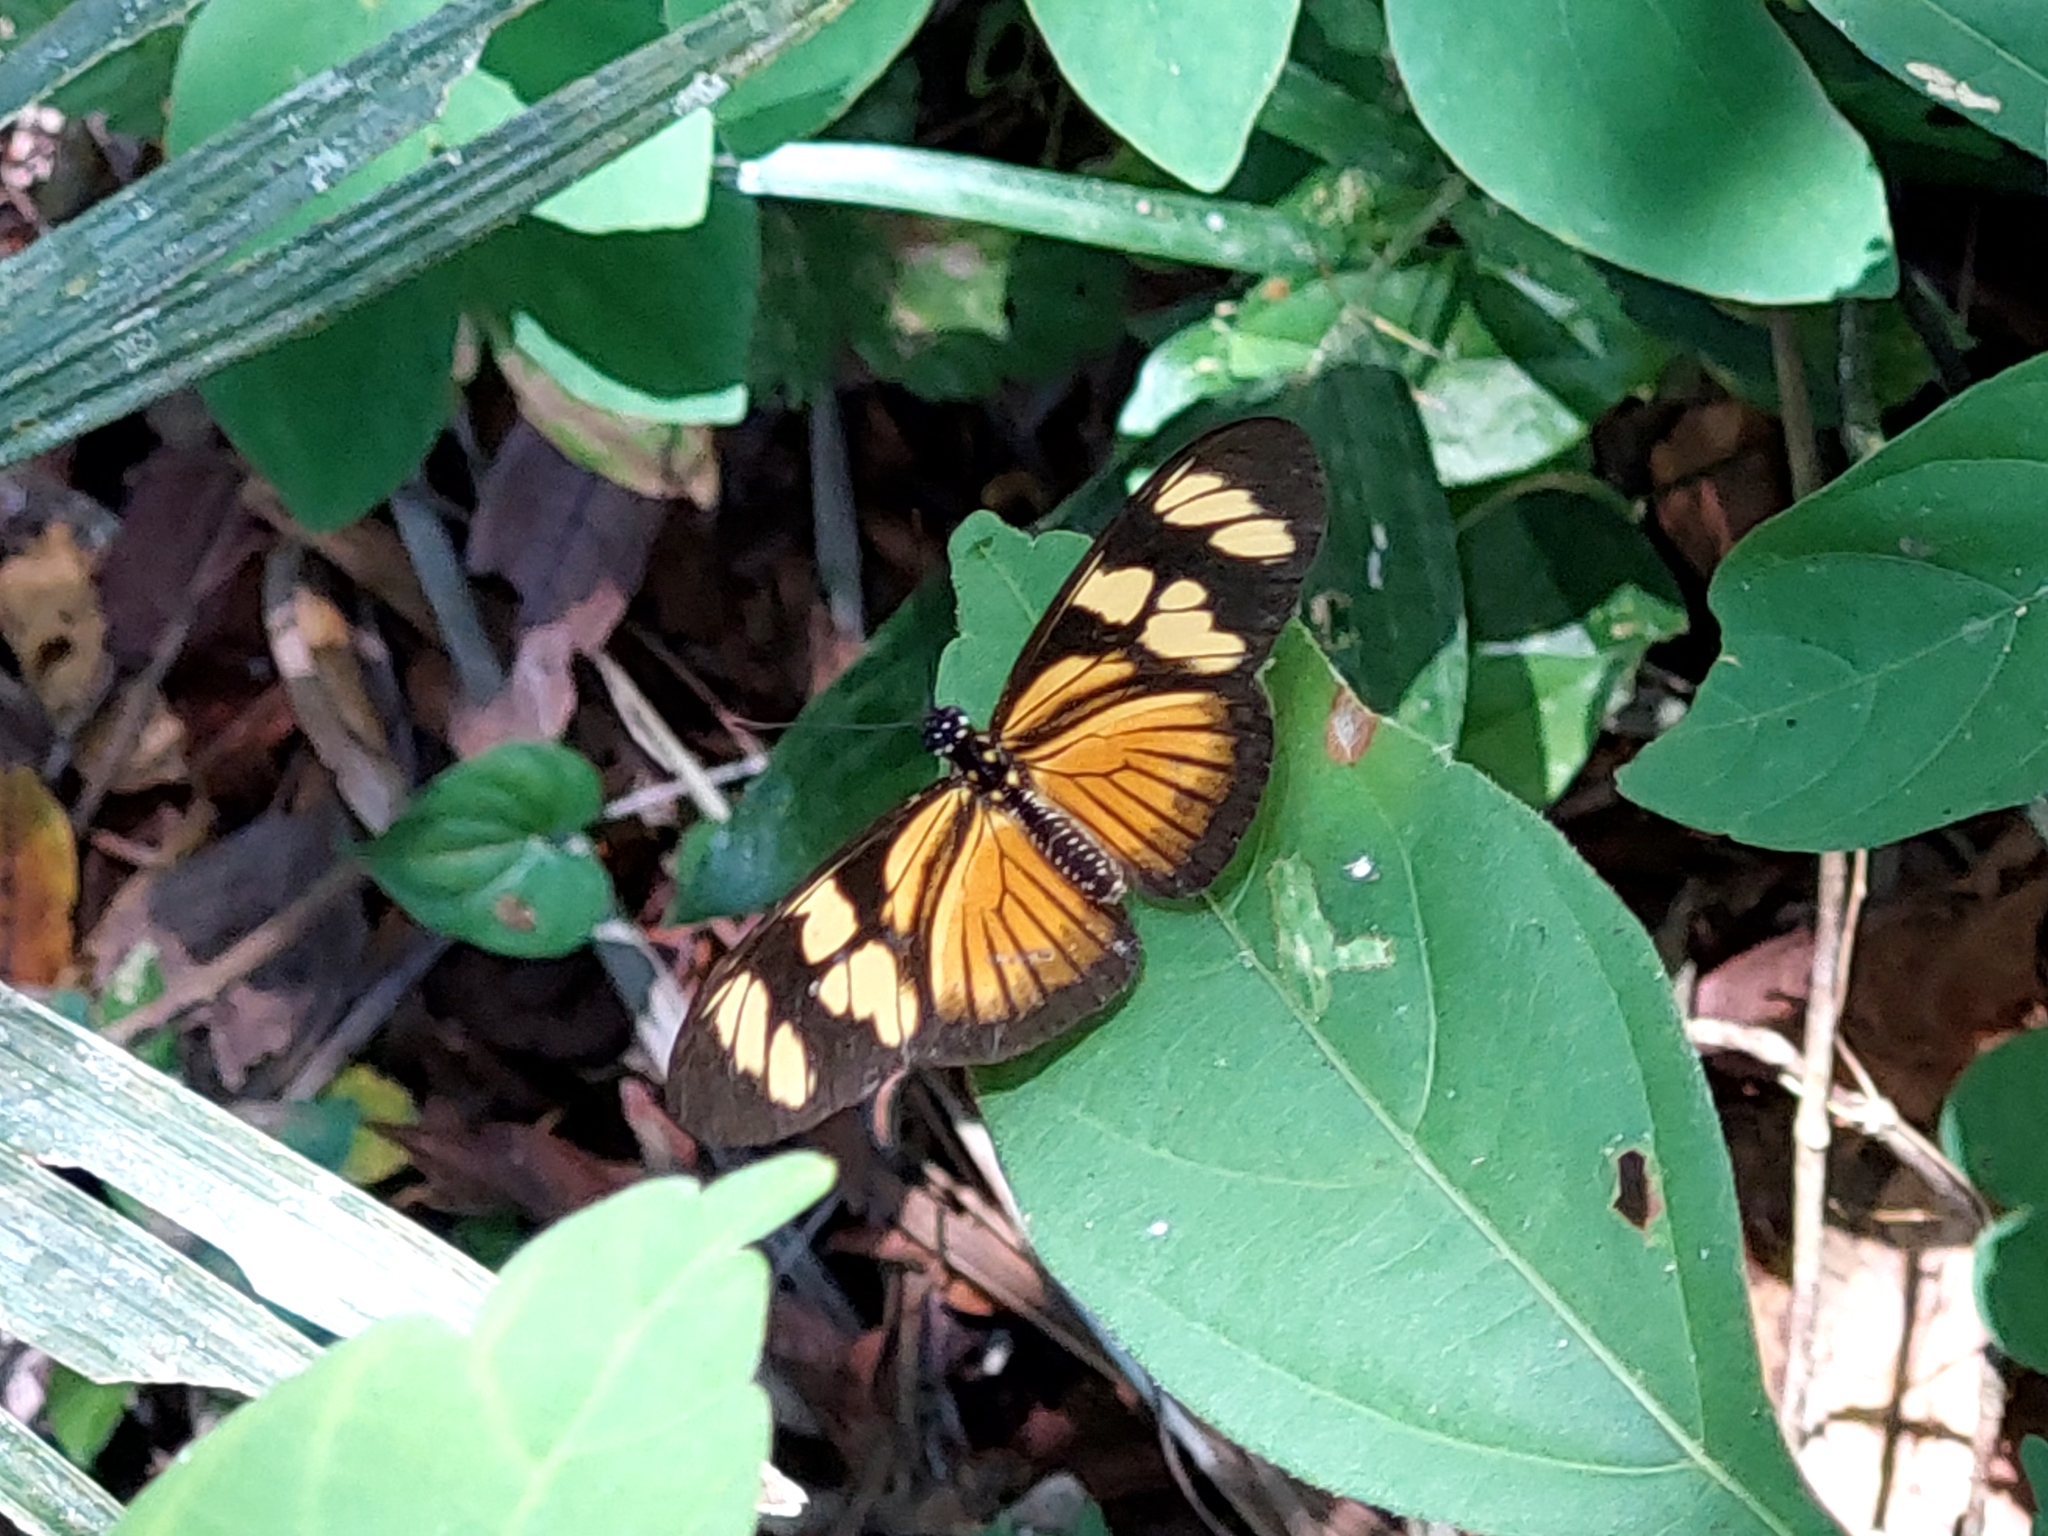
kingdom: Animalia
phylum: Arthropoda
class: Insecta
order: Lepidoptera
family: Nymphalidae
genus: Eueides
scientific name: Eueides vibilia
